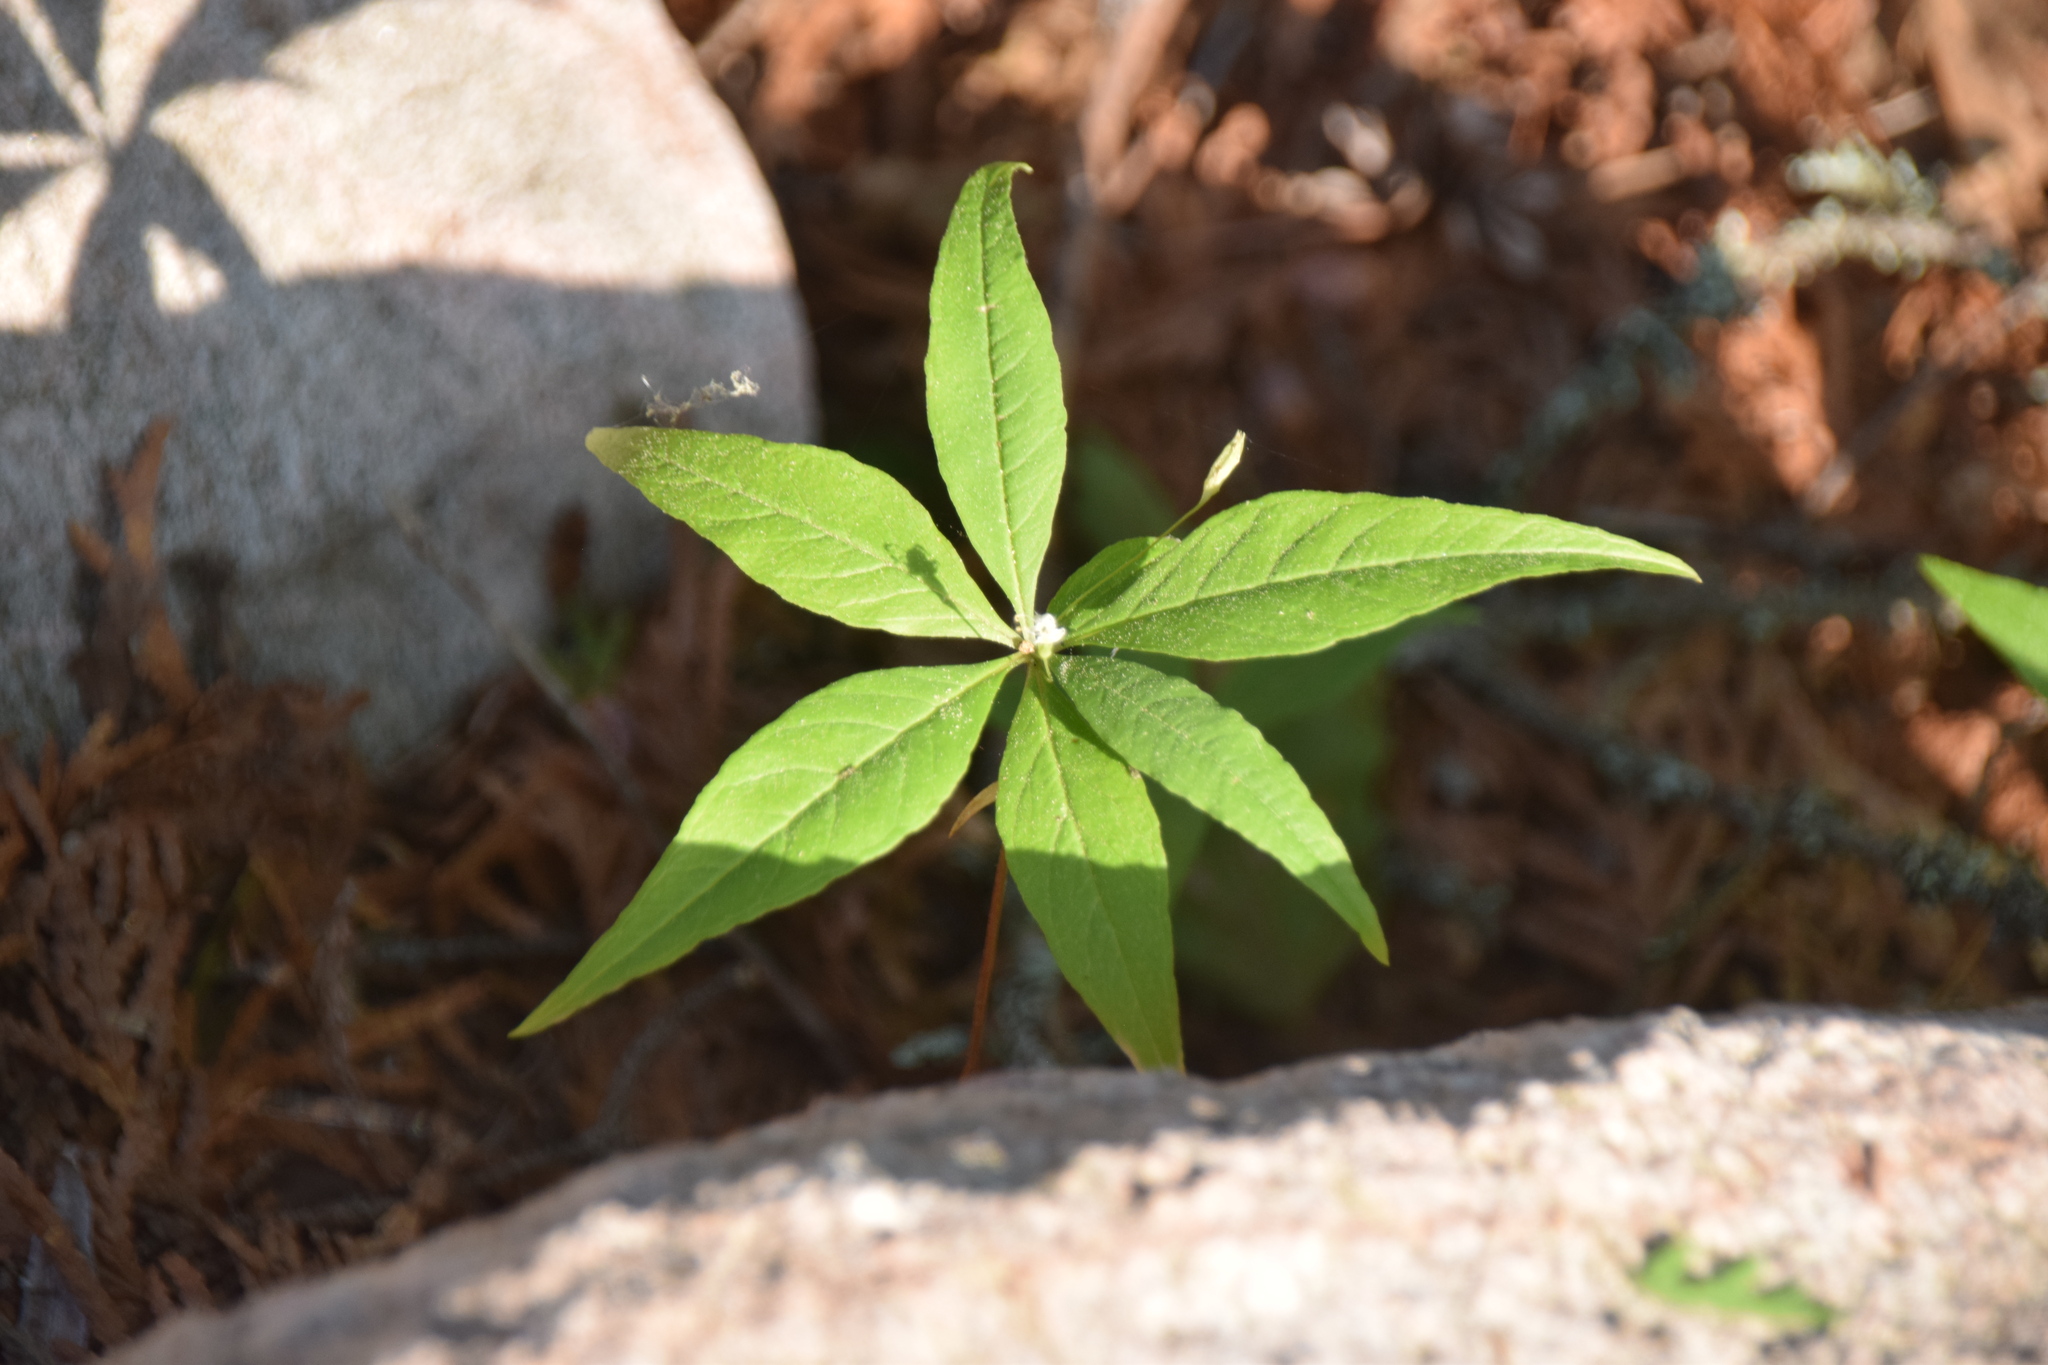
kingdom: Plantae
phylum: Tracheophyta
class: Magnoliopsida
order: Ericales
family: Primulaceae
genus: Lysimachia
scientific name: Lysimachia borealis
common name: American starflower
